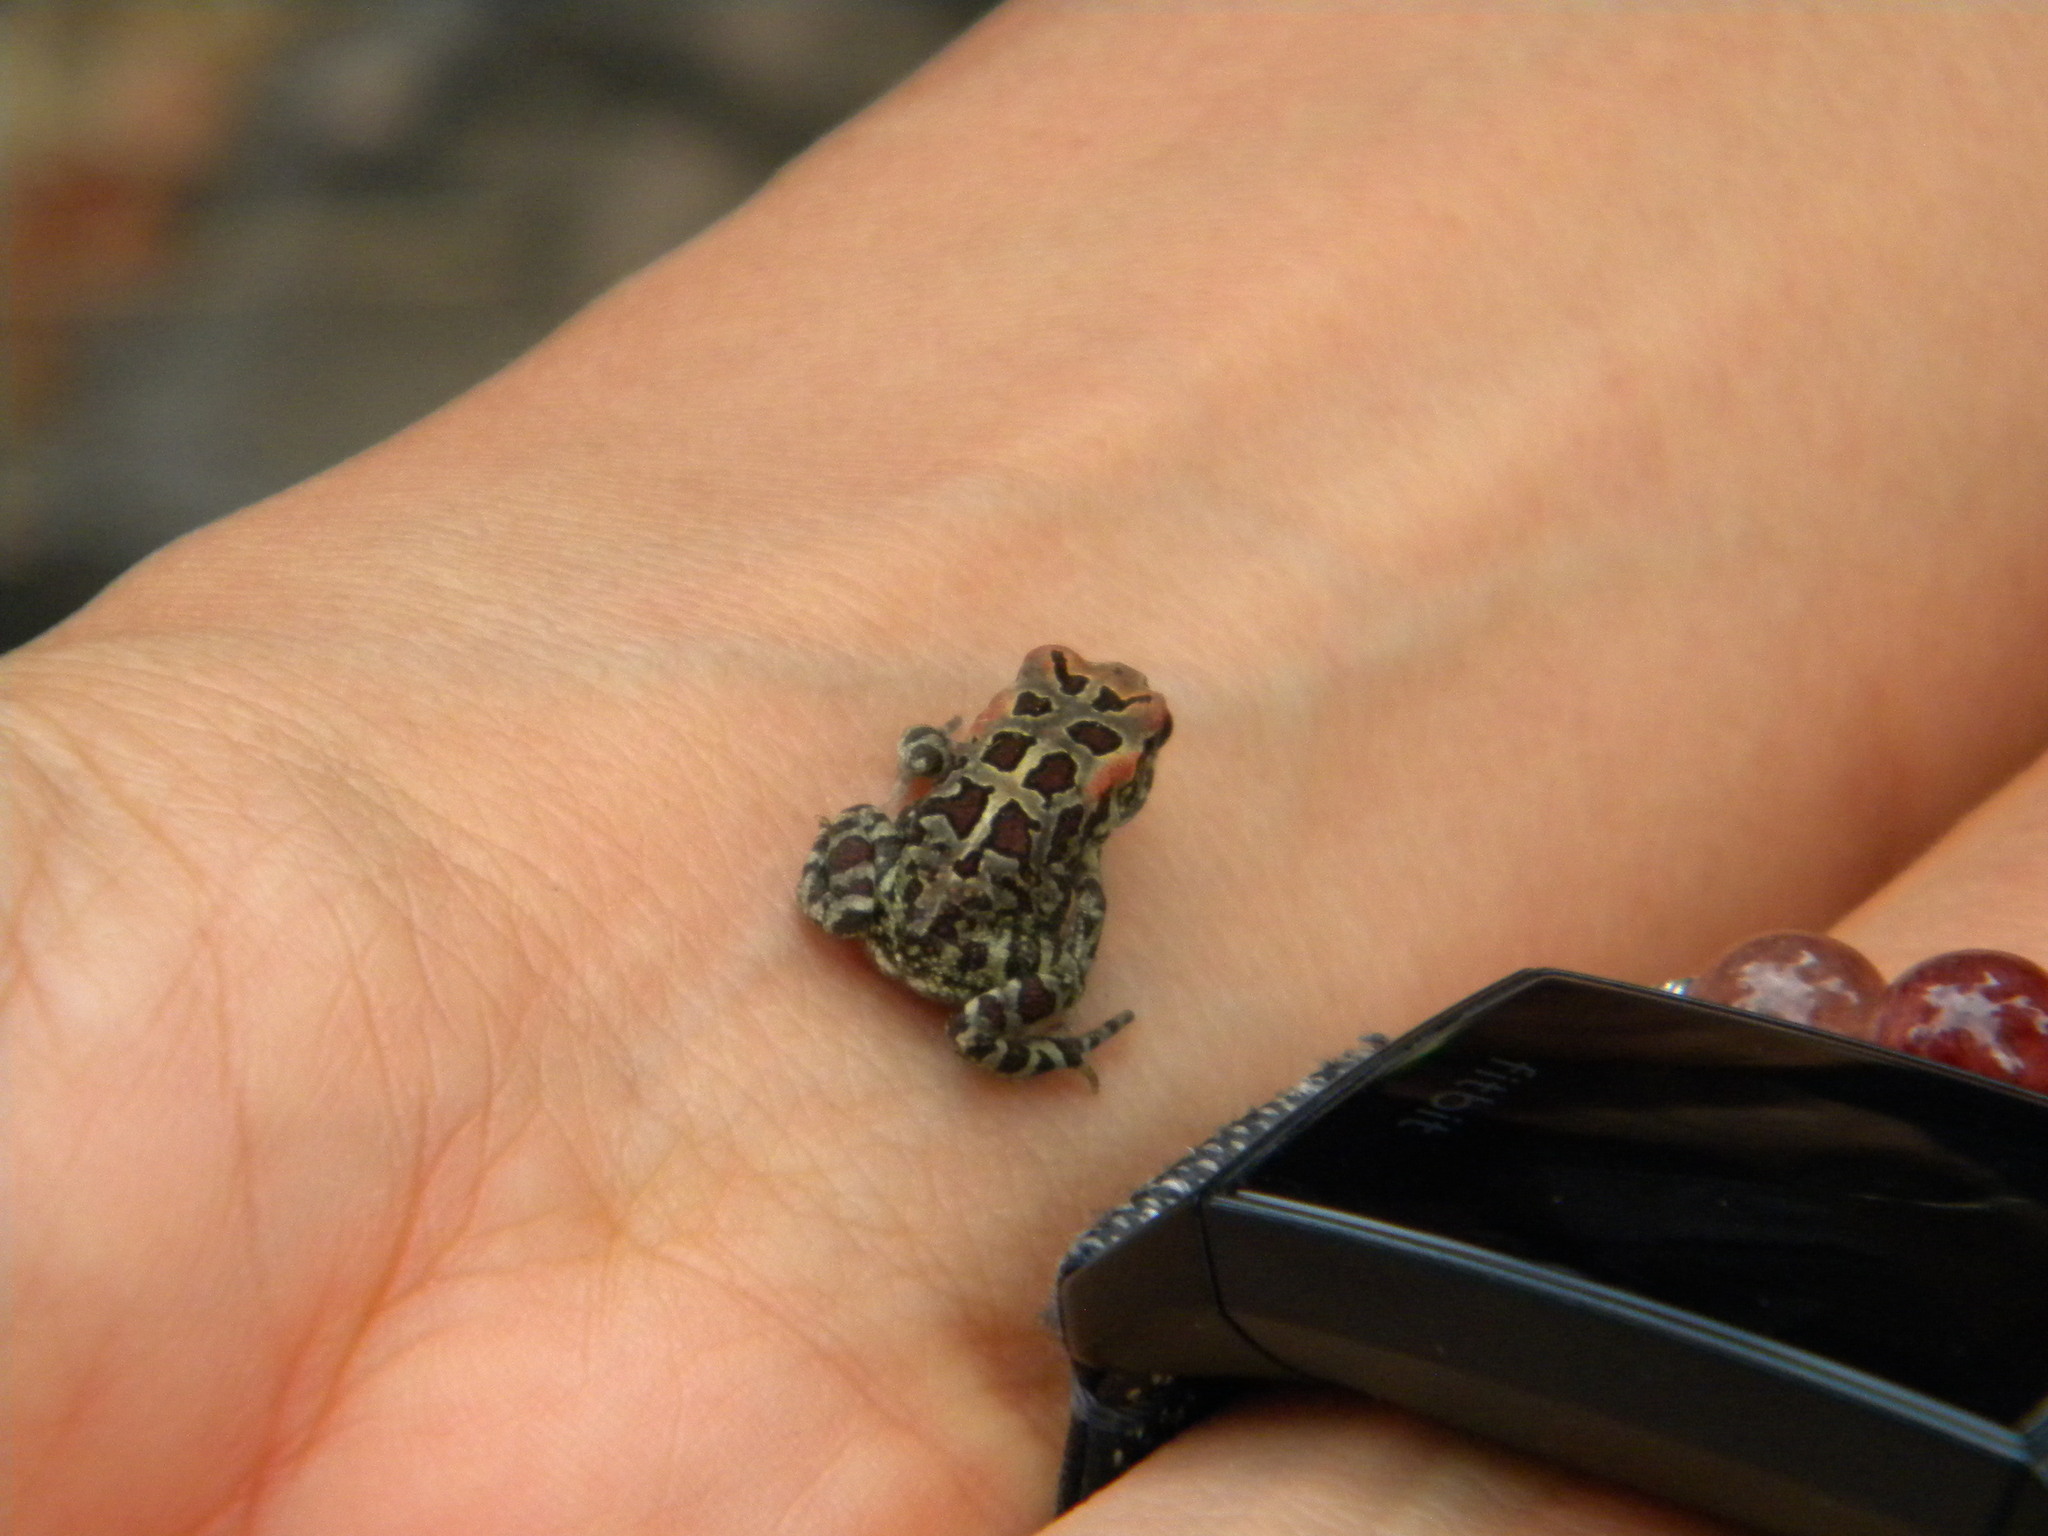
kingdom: Animalia
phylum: Chordata
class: Amphibia
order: Anura
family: Bufonidae
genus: Sclerophrys
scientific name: Sclerophrys pantherina
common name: Panther toad
